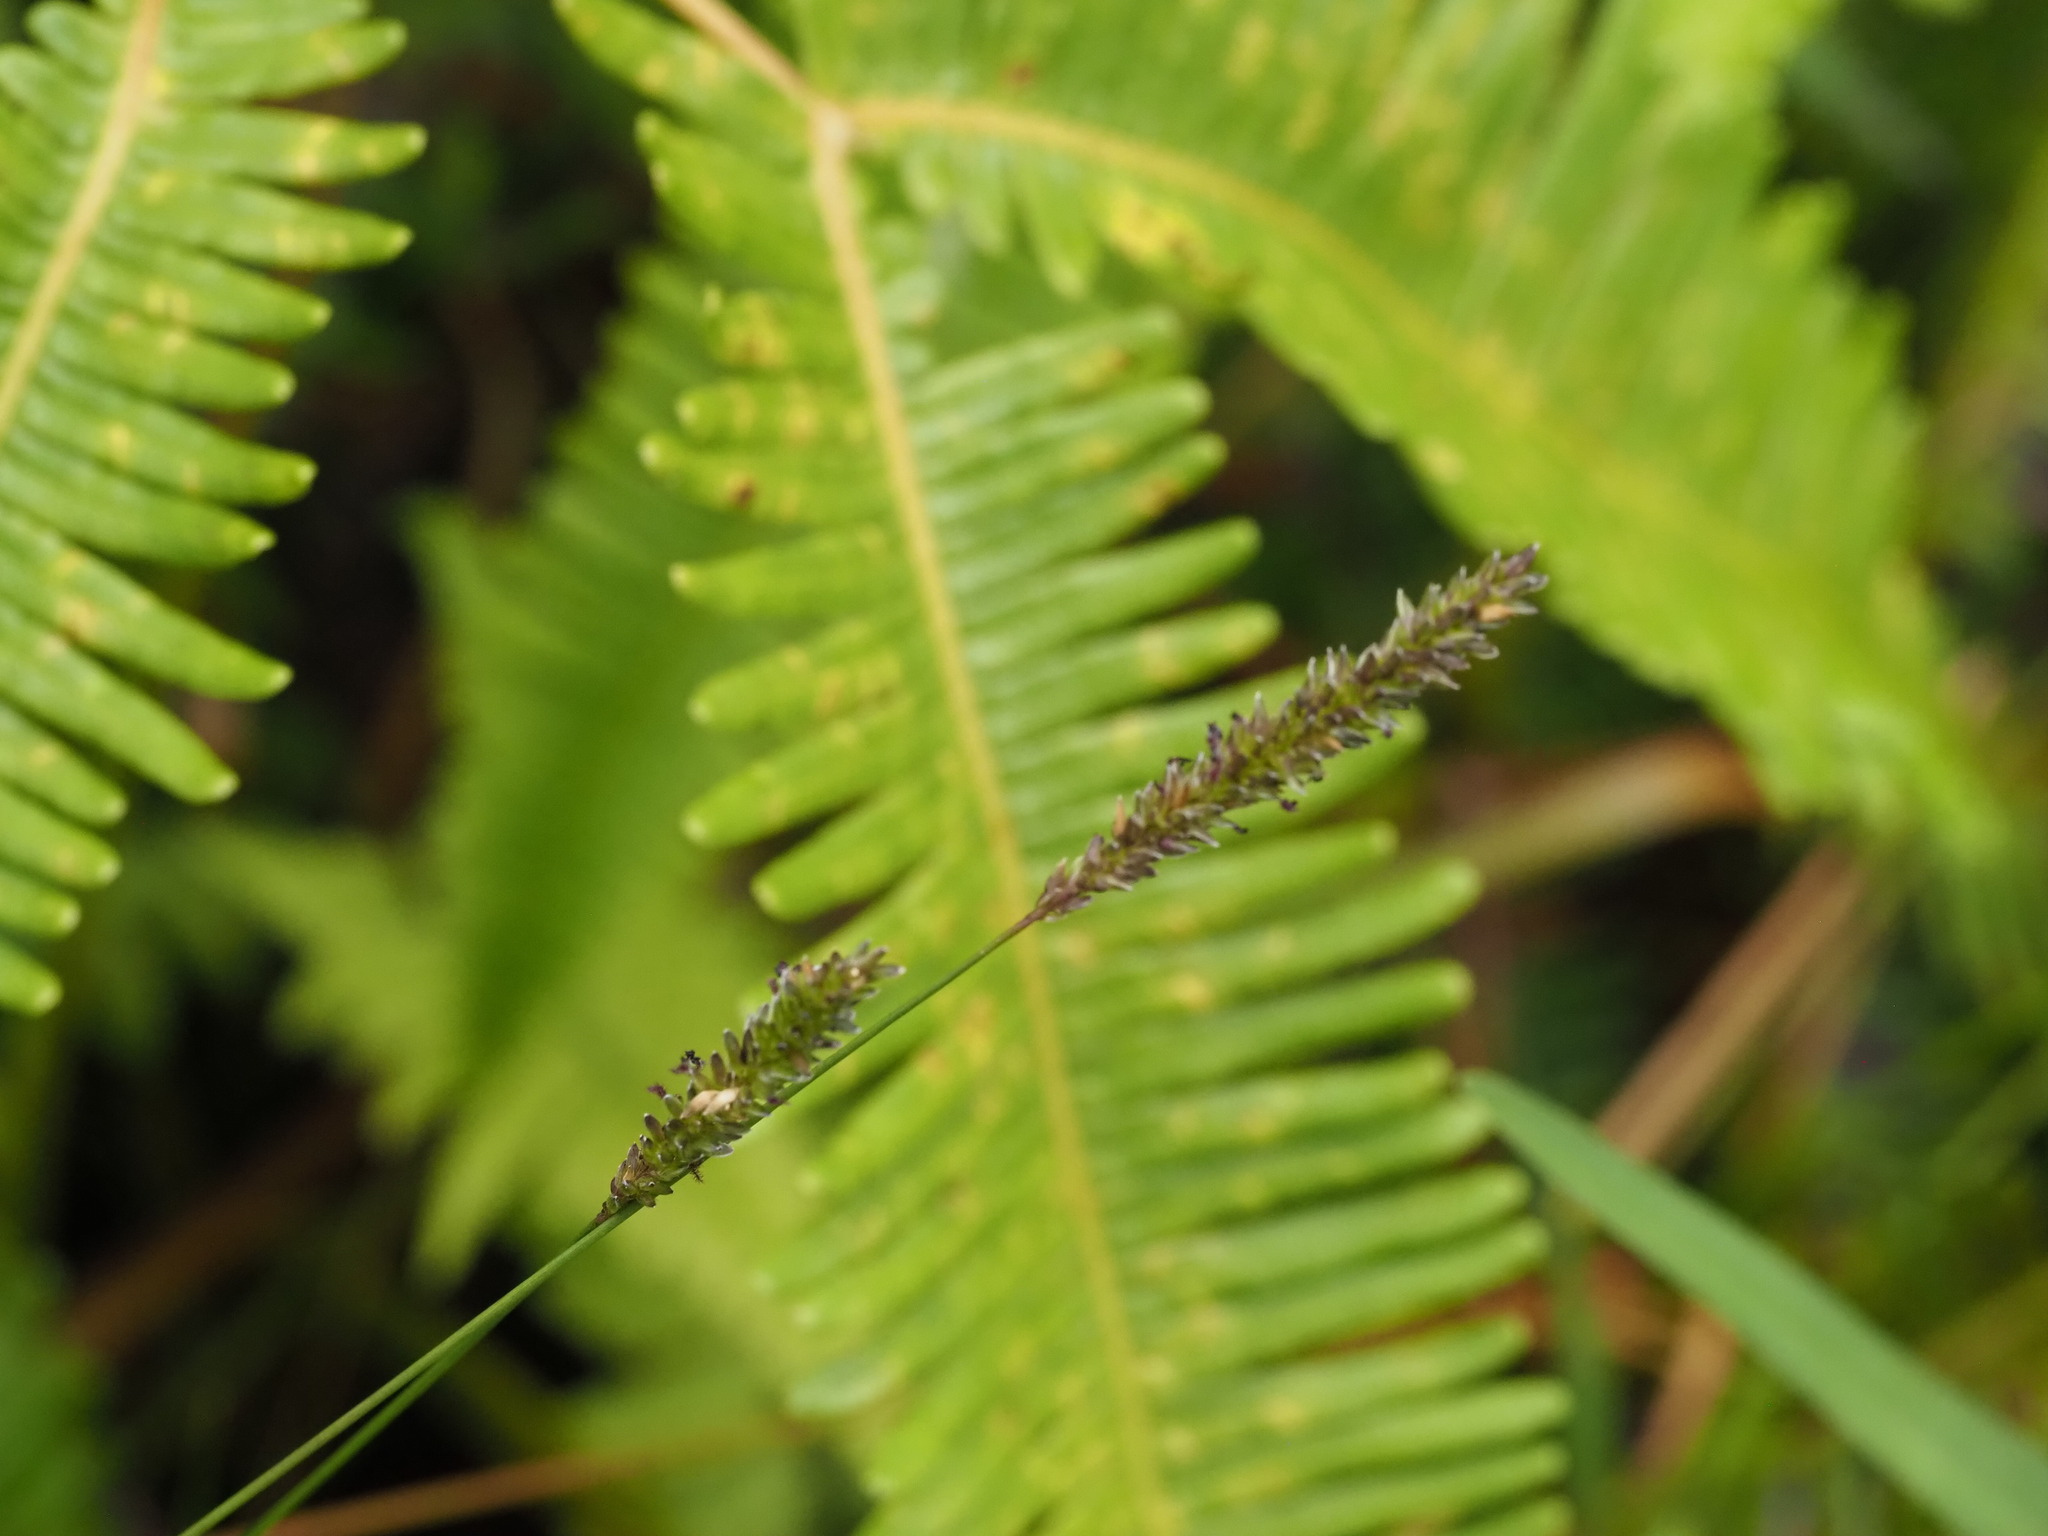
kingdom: Plantae
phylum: Tracheophyta
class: Liliopsida
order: Poales
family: Poaceae
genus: Sacciolepis
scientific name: Sacciolepis indica
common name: Glenwoodgrass
